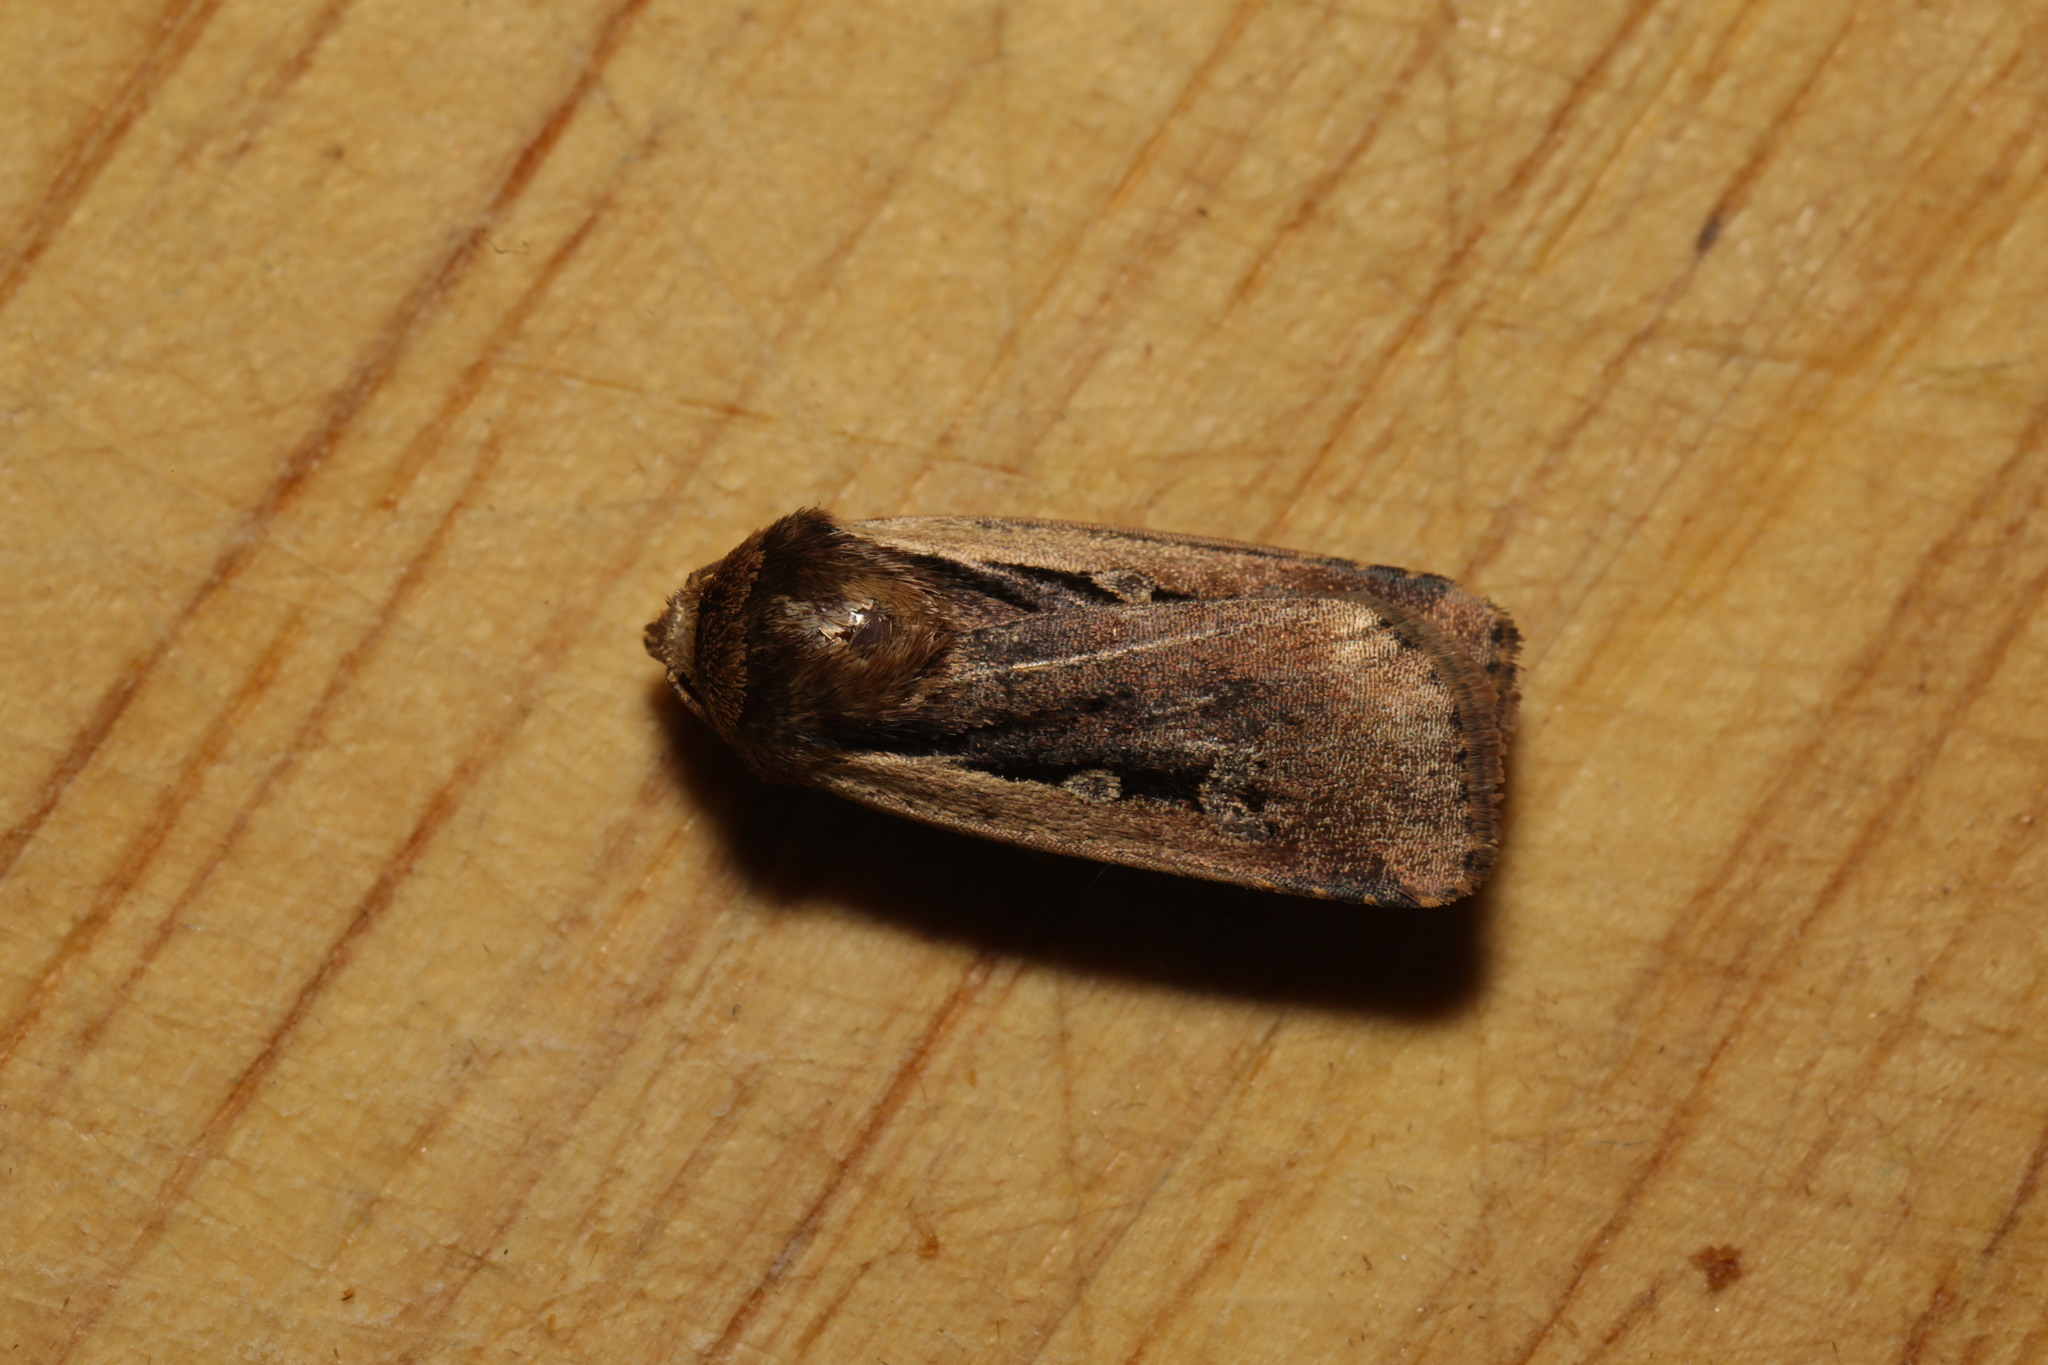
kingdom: Animalia
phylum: Arthropoda
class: Insecta
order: Lepidoptera
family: Noctuidae
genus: Ochropleura
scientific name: Ochropleura plecta
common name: Flame shoulder
